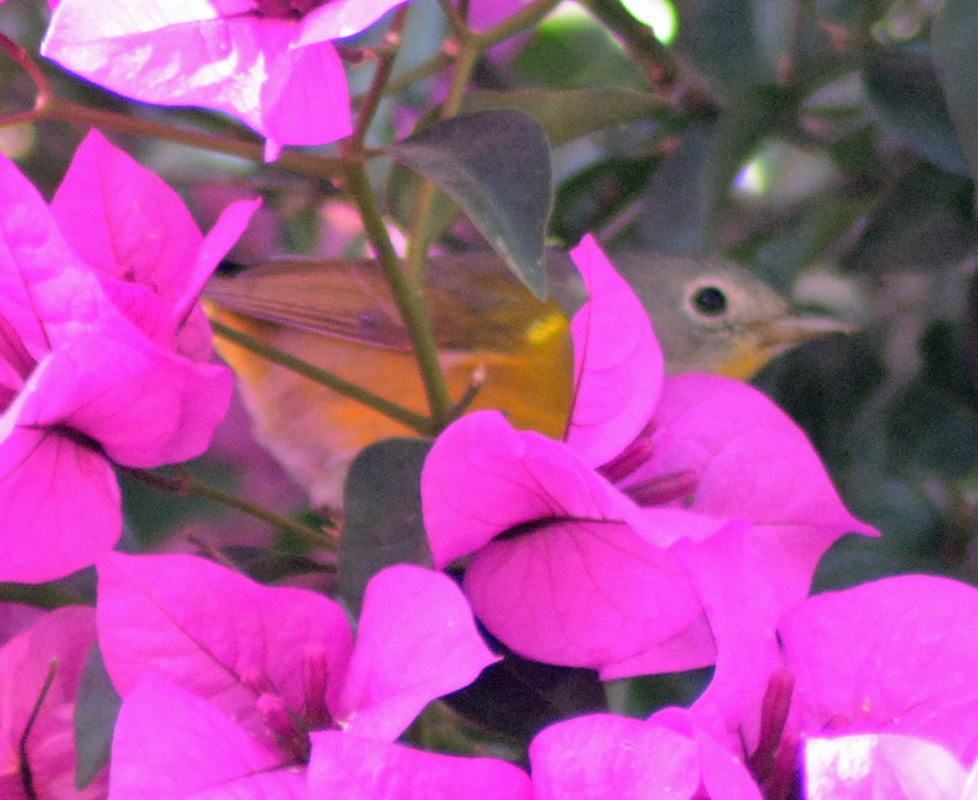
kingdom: Animalia
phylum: Chordata
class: Aves
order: Passeriformes
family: Parulidae
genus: Leiothlypis
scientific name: Leiothlypis ruficapilla
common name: Nashville warbler
